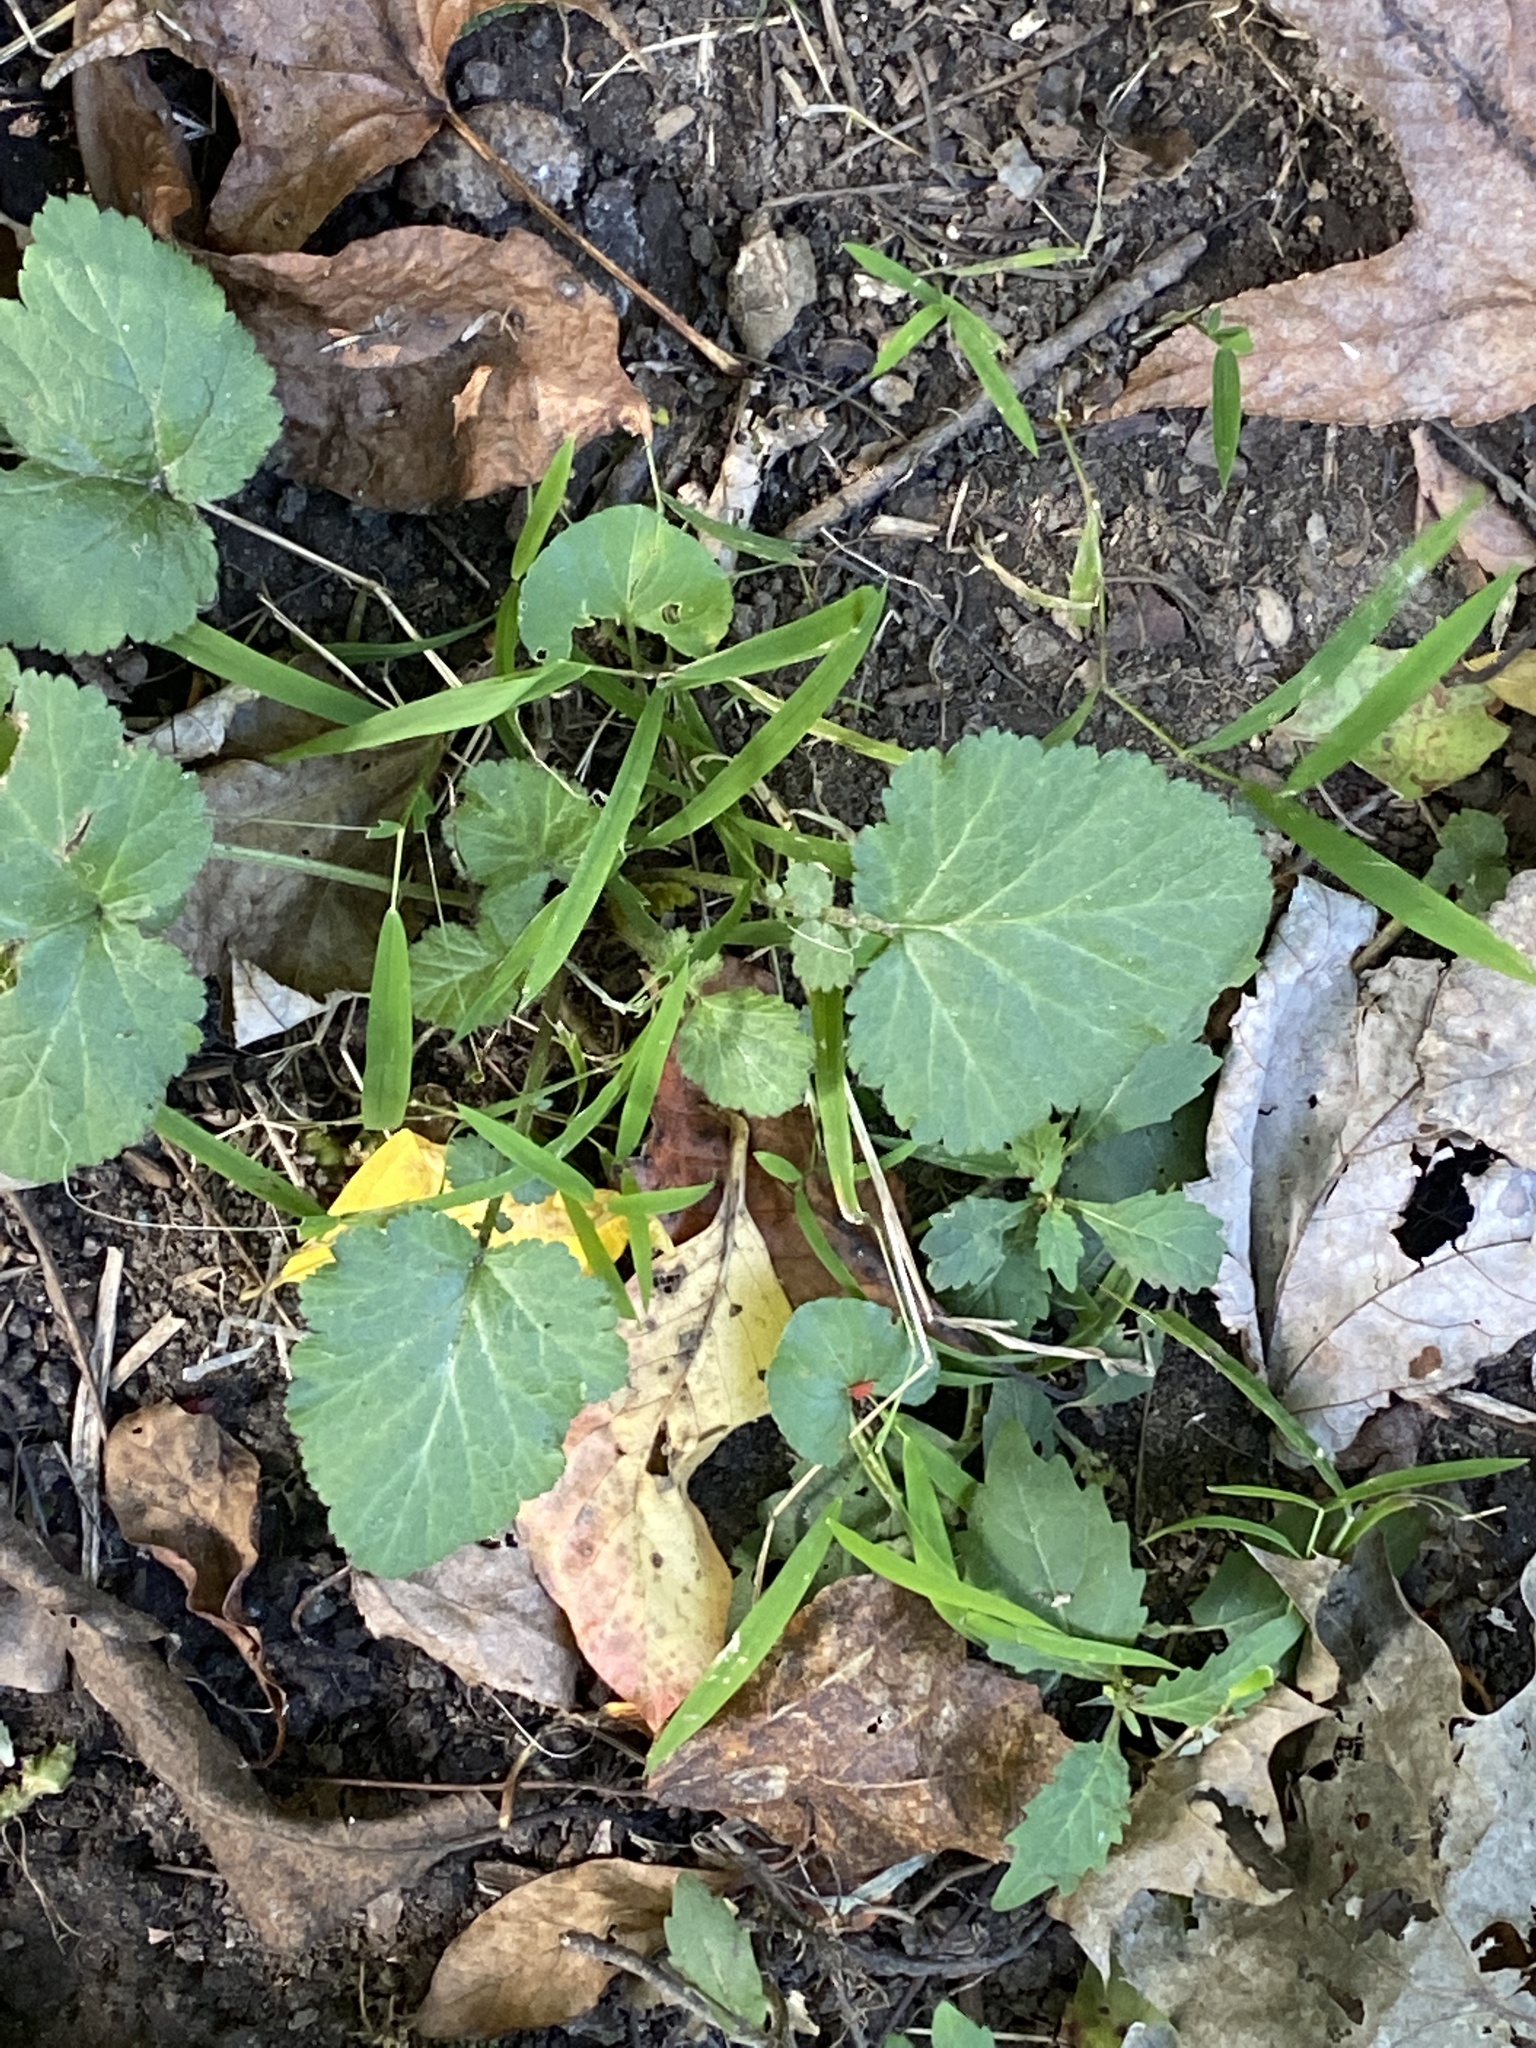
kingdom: Plantae
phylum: Tracheophyta
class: Magnoliopsida
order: Rosales
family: Rosaceae
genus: Geum
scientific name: Geum canadense
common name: White avens
